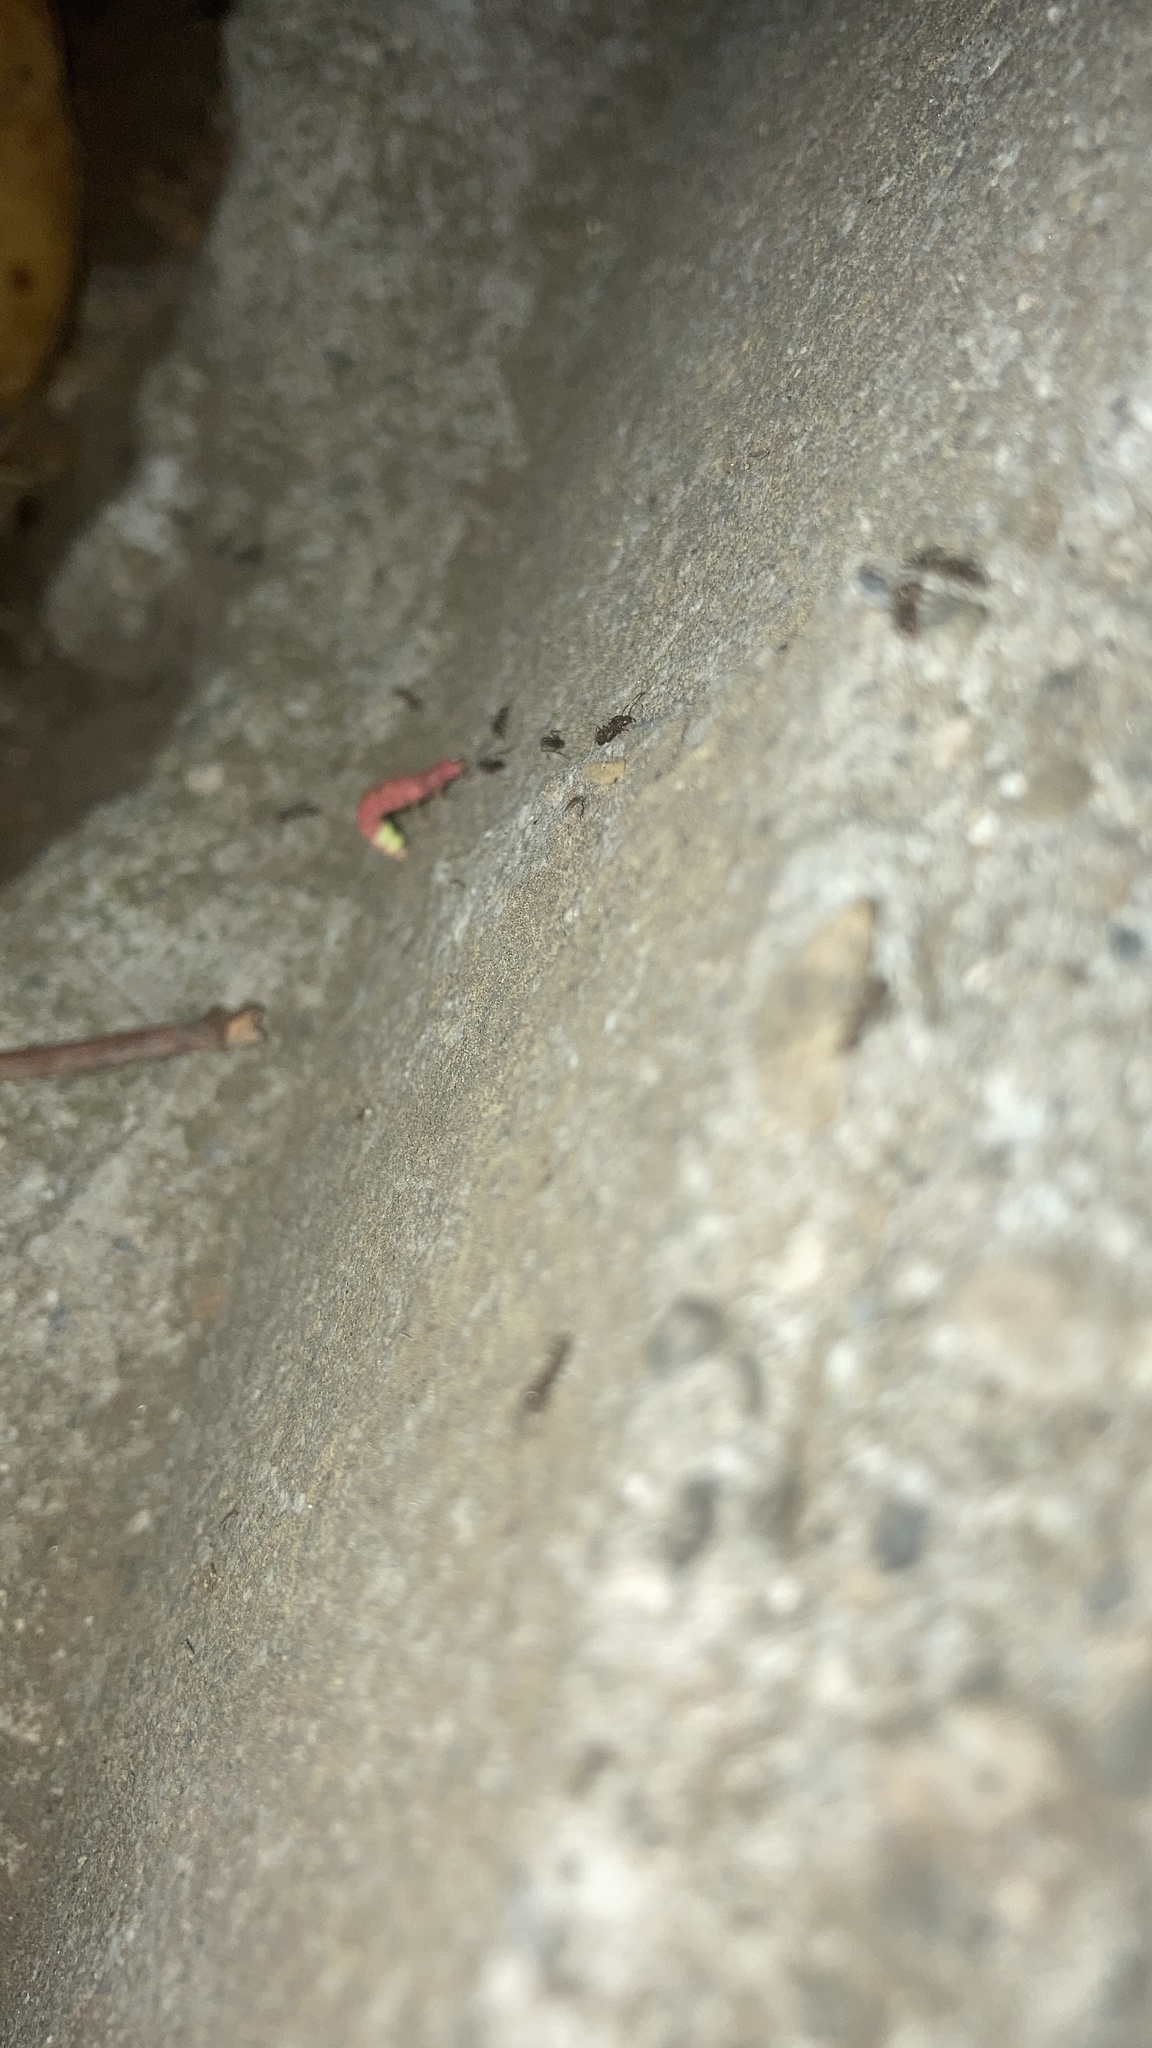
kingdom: Animalia
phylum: Arthropoda
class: Insecta
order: Coleoptera
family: Lampyridae
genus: Microphotus
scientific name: Microphotus angustus
